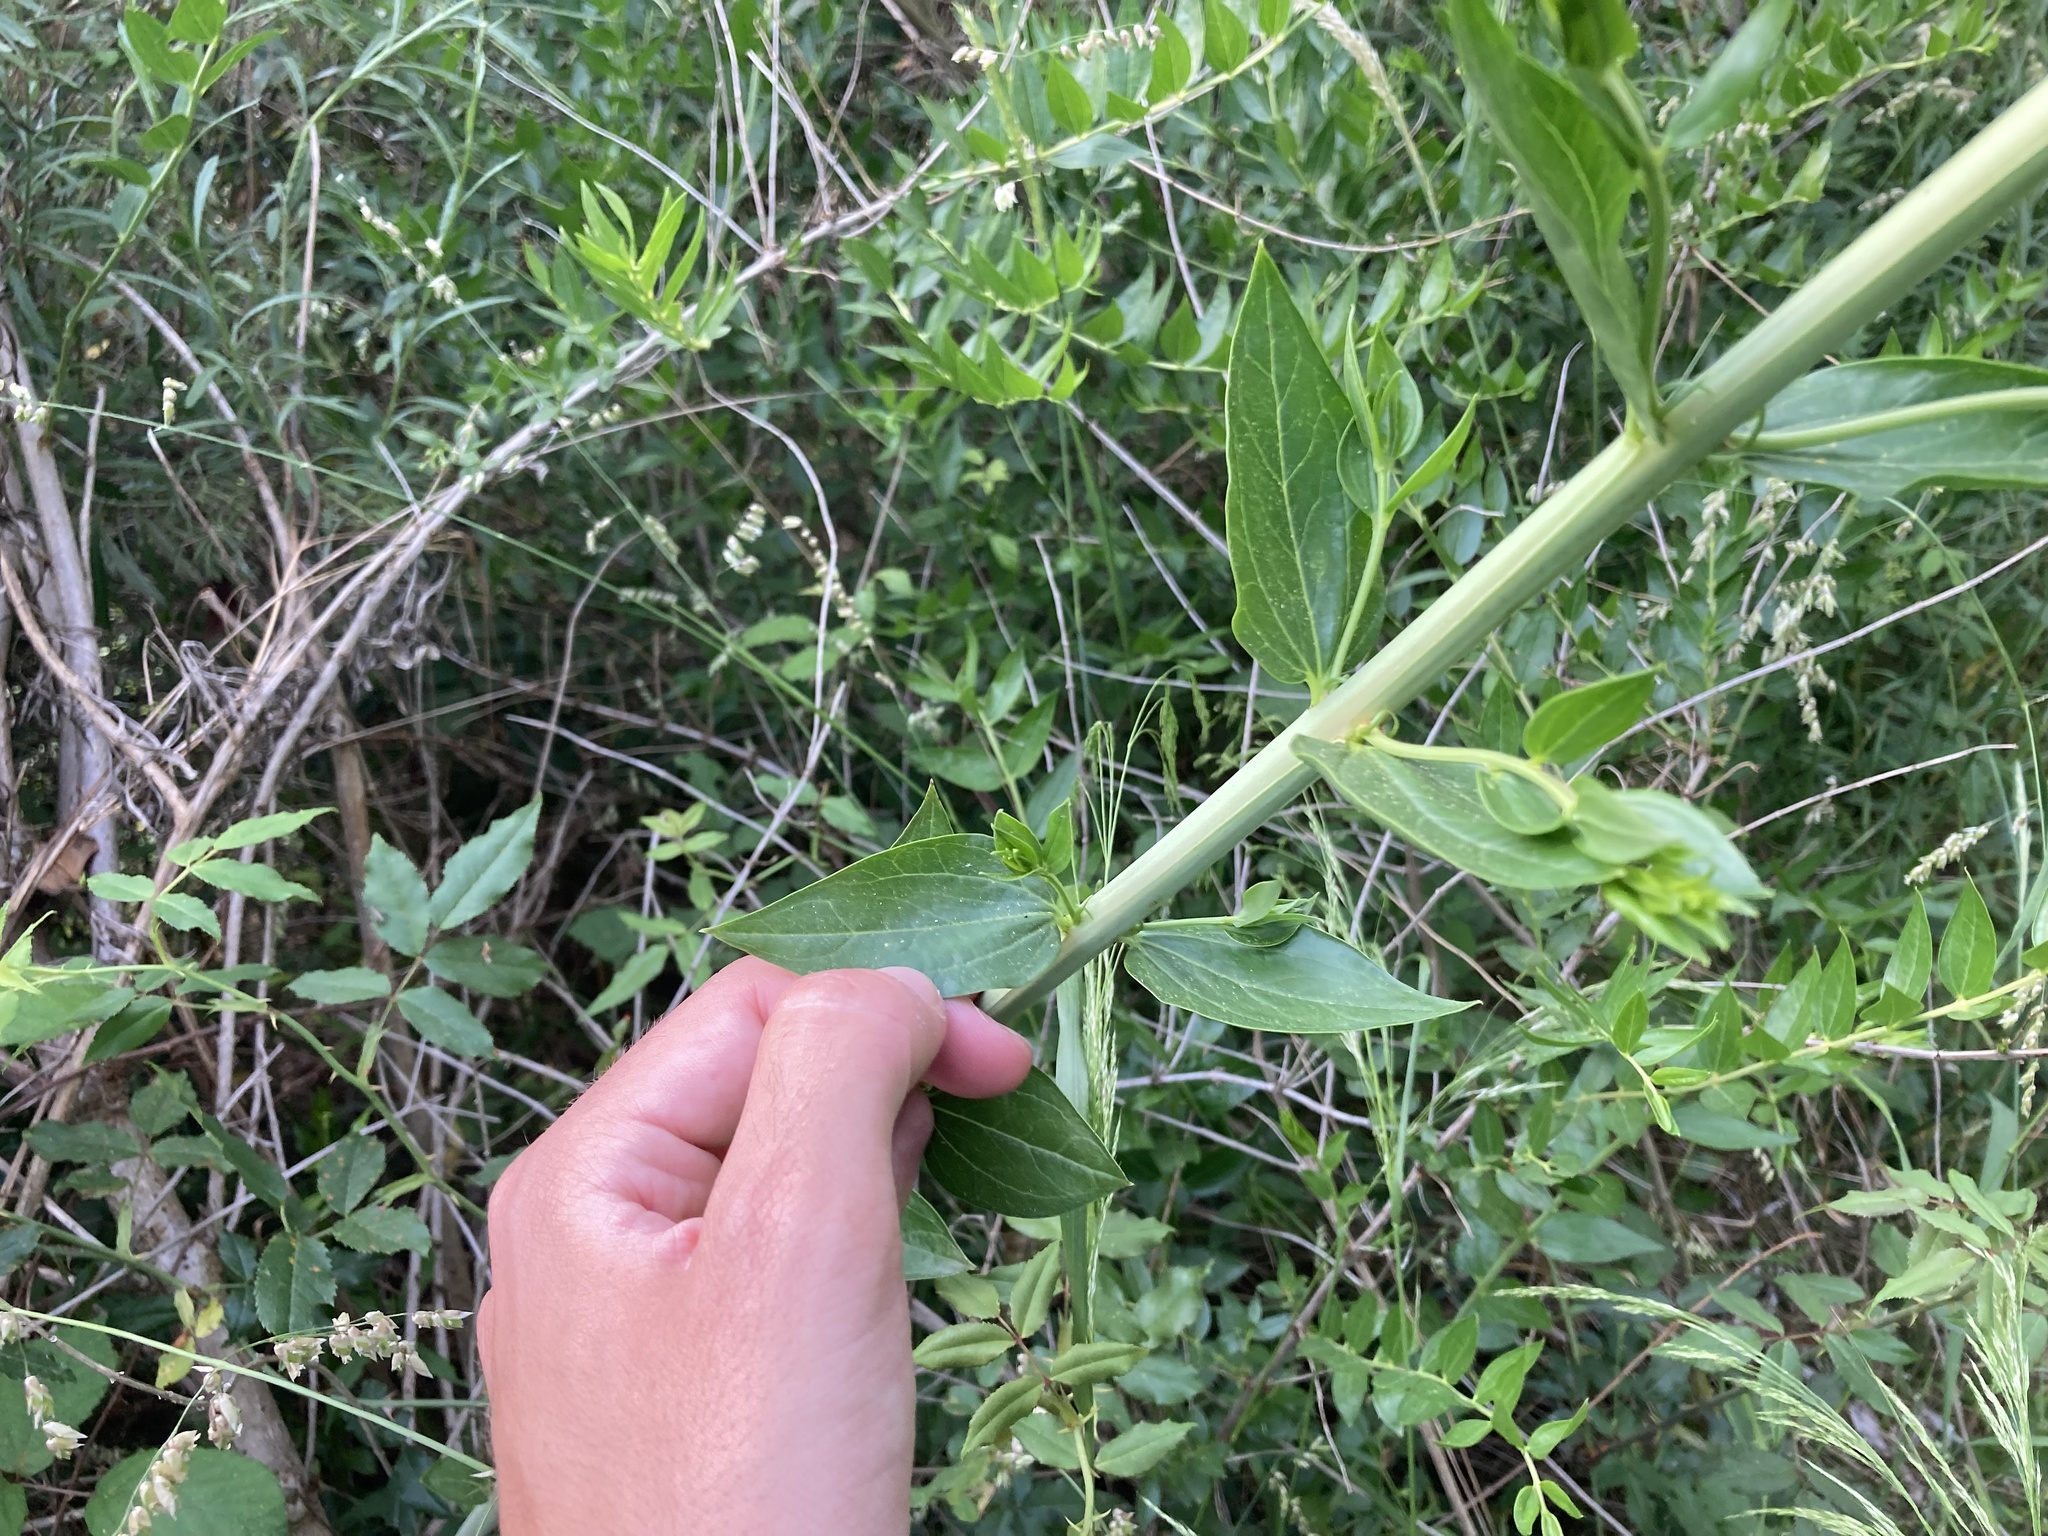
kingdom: Plantae
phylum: Tracheophyta
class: Magnoliopsida
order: Cucurbitales
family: Coriariaceae
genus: Coriaria
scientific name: Coriaria myrtifolia
